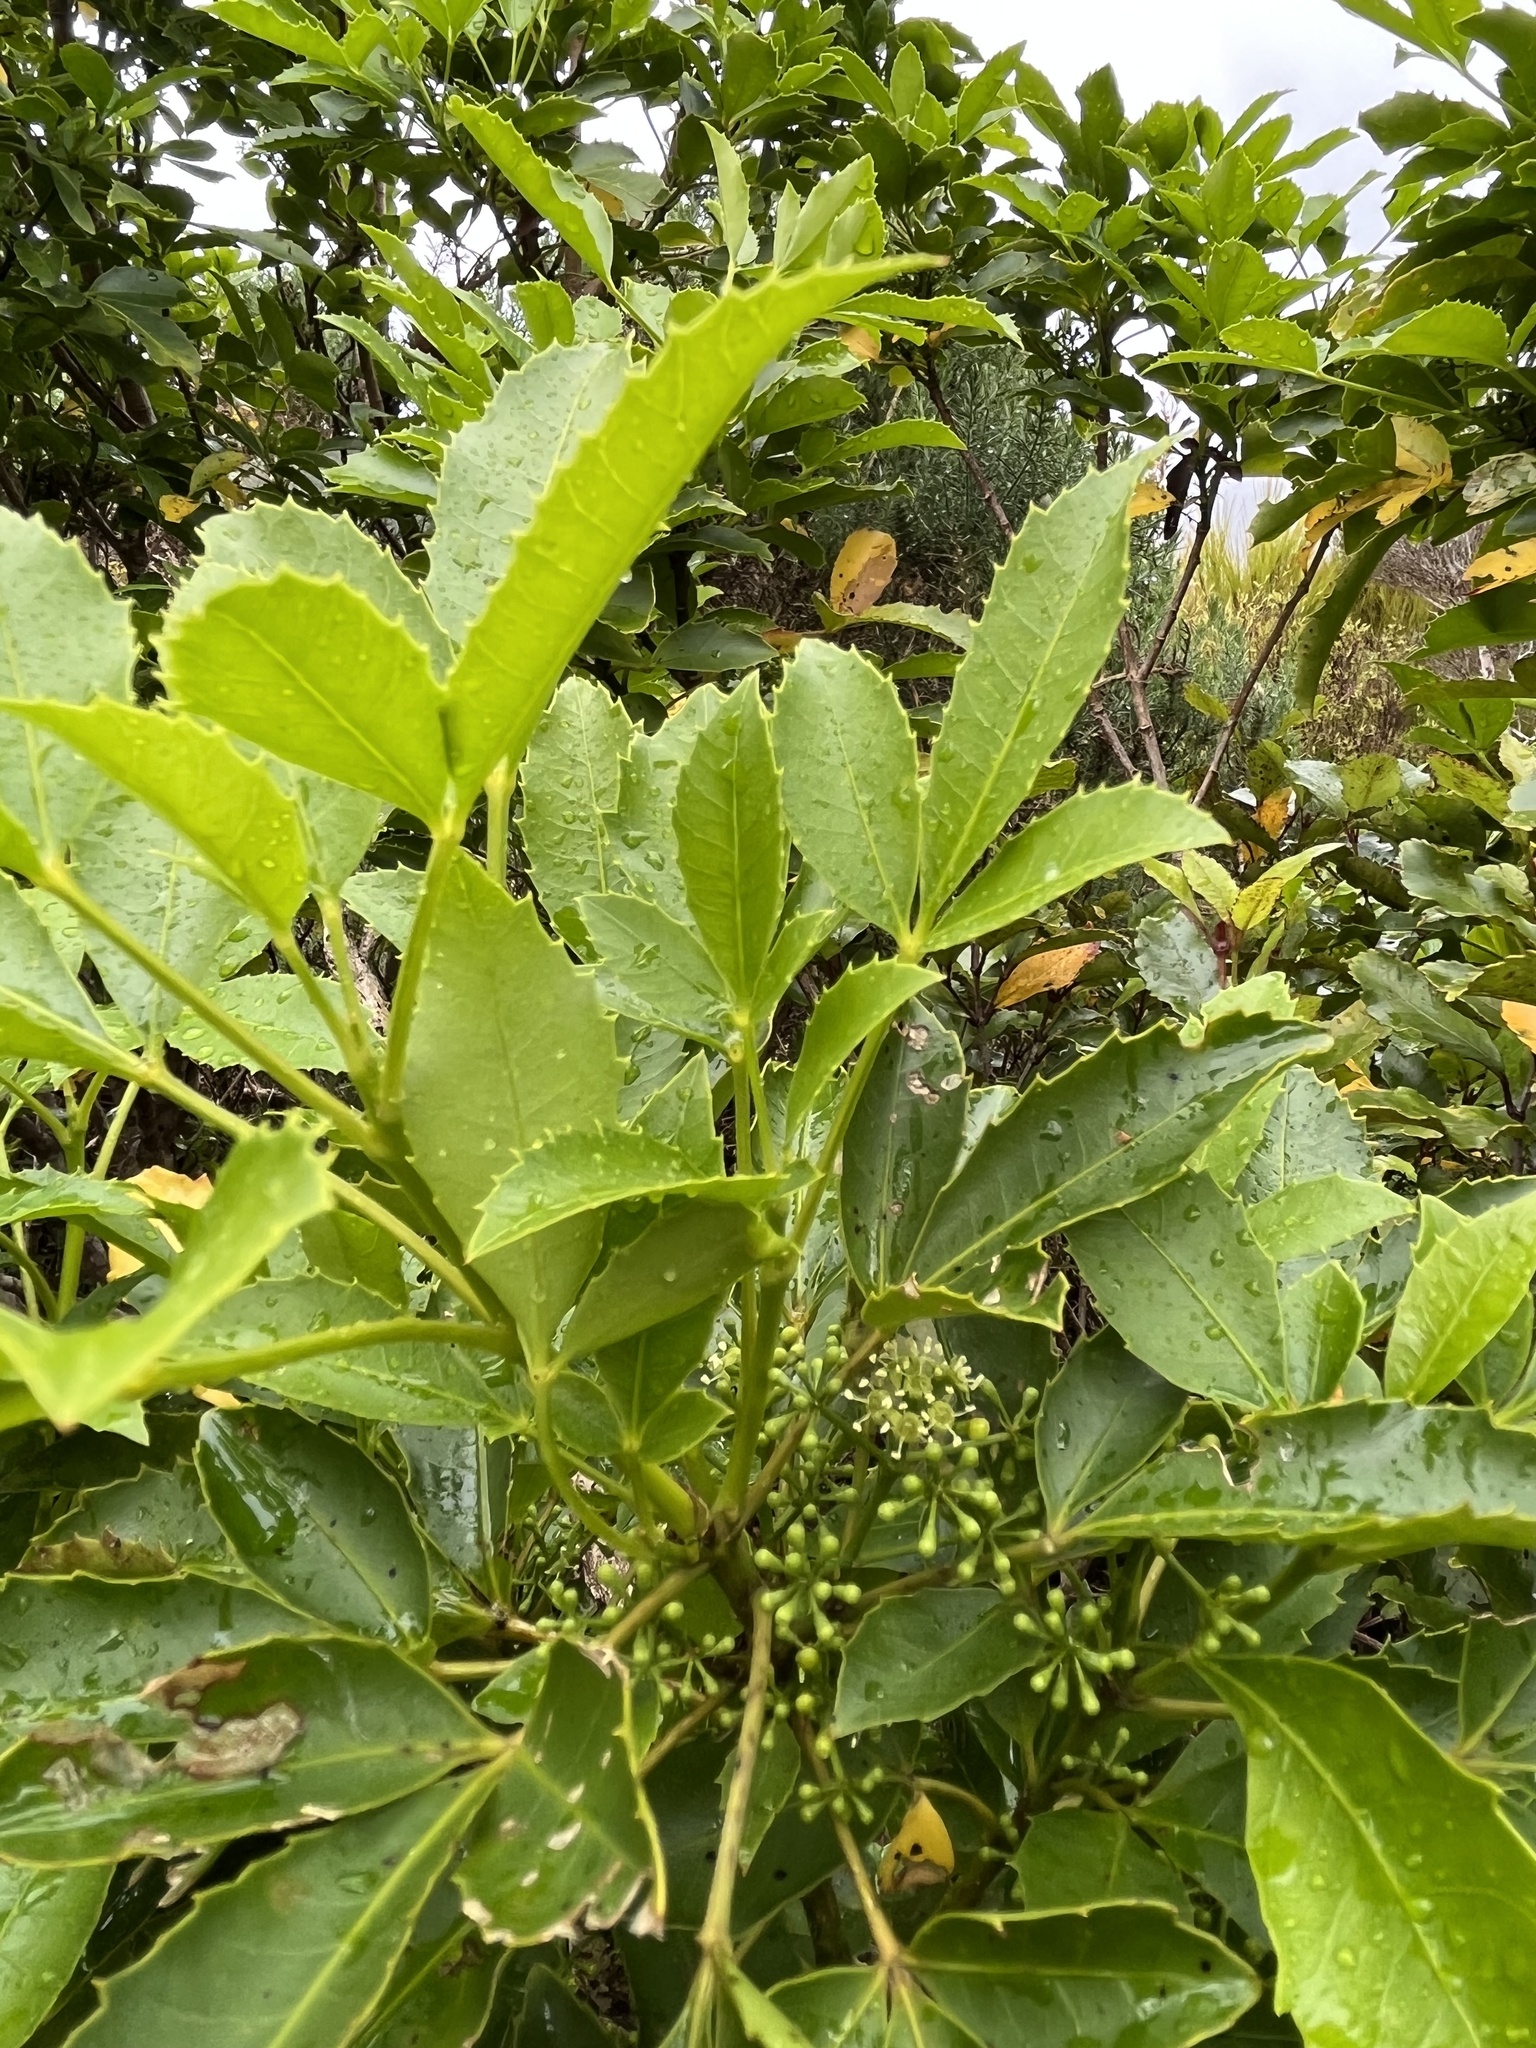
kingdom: Plantae
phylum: Tracheophyta
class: Magnoliopsida
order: Apiales
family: Araliaceae
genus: Neopanax
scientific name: Neopanax colensoi
